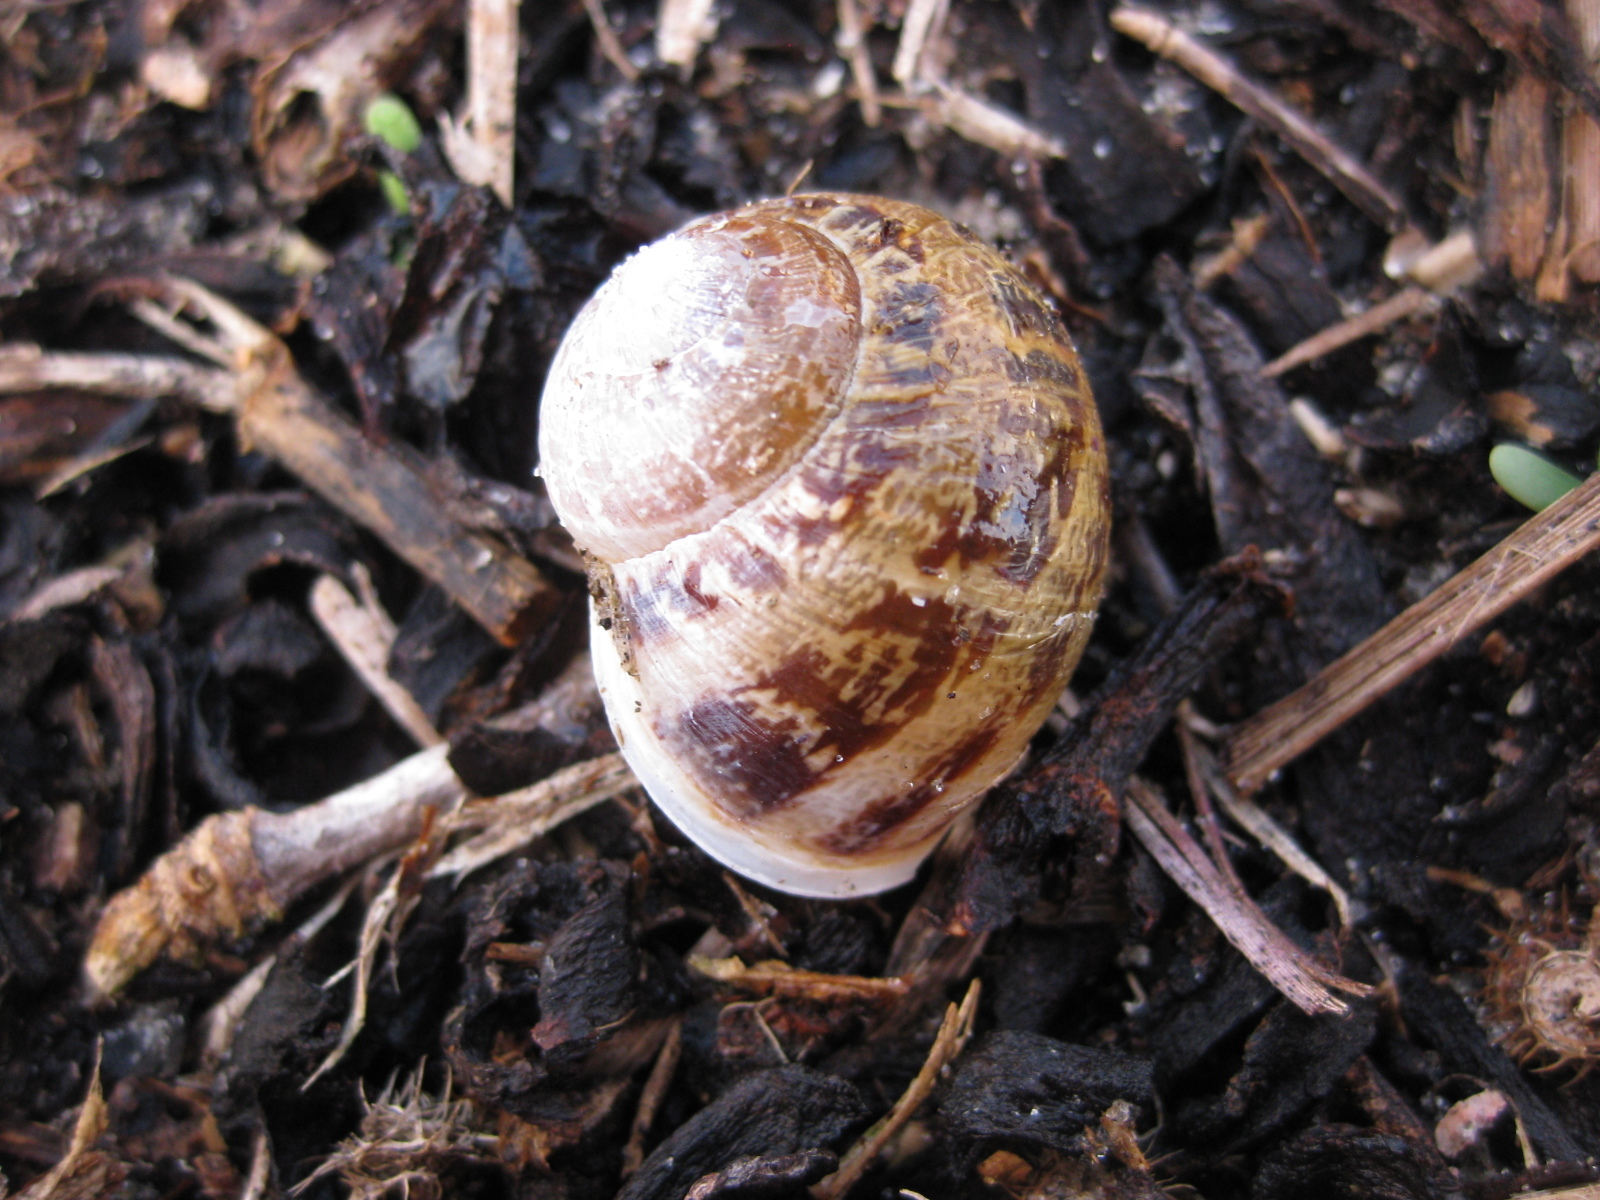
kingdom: Animalia
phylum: Mollusca
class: Gastropoda
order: Stylommatophora
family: Helicidae
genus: Cornu
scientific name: Cornu aspersum
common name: Brown garden snail
